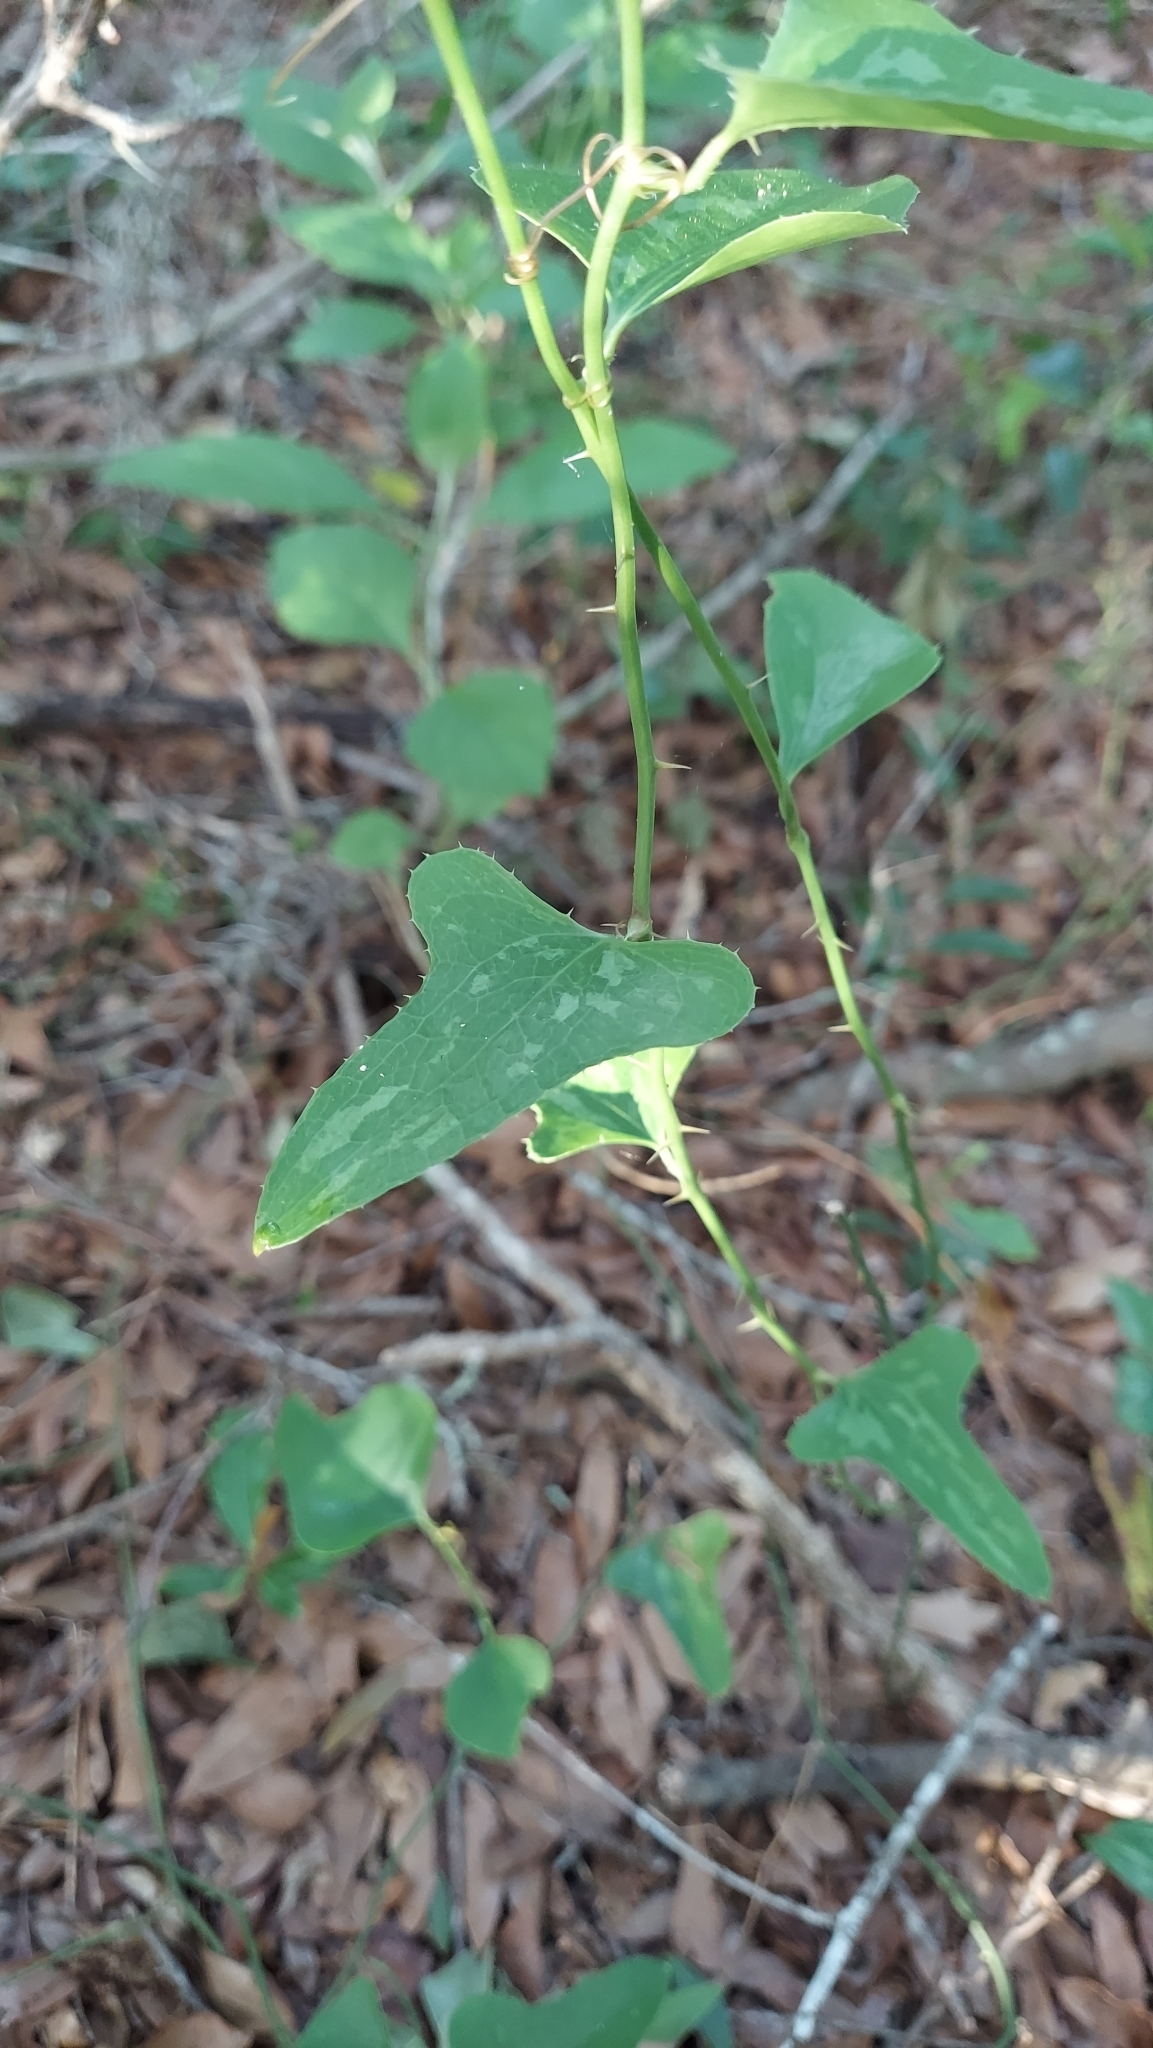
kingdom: Plantae
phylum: Tracheophyta
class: Liliopsida
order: Liliales
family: Smilacaceae
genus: Smilax
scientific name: Smilax bona-nox
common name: Catbrier
